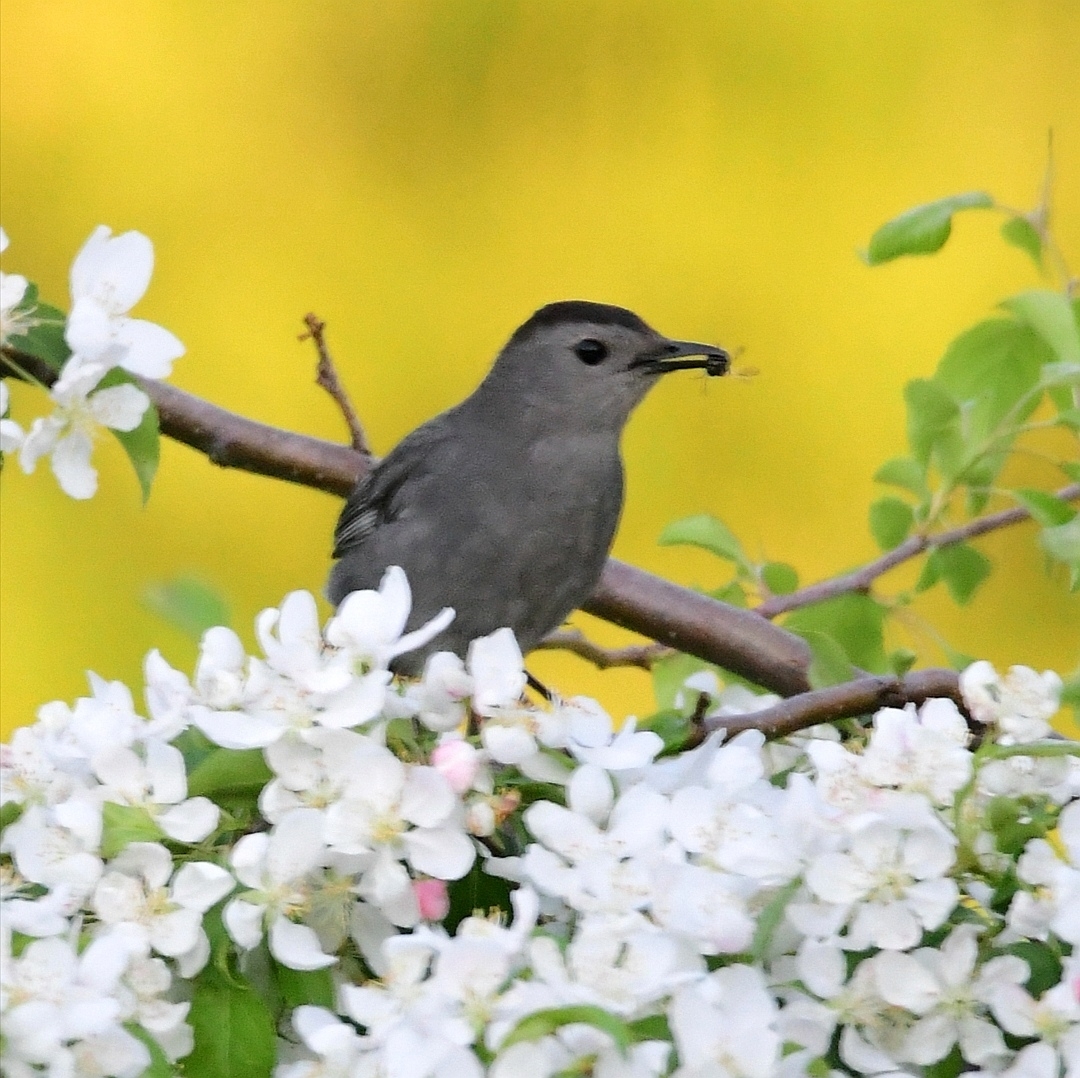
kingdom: Animalia
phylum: Chordata
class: Aves
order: Passeriformes
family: Mimidae
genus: Dumetella
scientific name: Dumetella carolinensis
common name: Gray catbird
